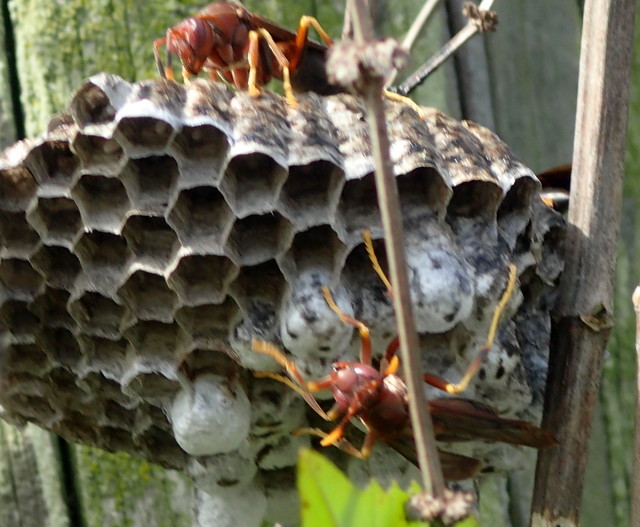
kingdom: Animalia
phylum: Arthropoda
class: Insecta
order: Hymenoptera
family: Eumenidae
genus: Polistes
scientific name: Polistes annularis
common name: Ringed paper wasp
